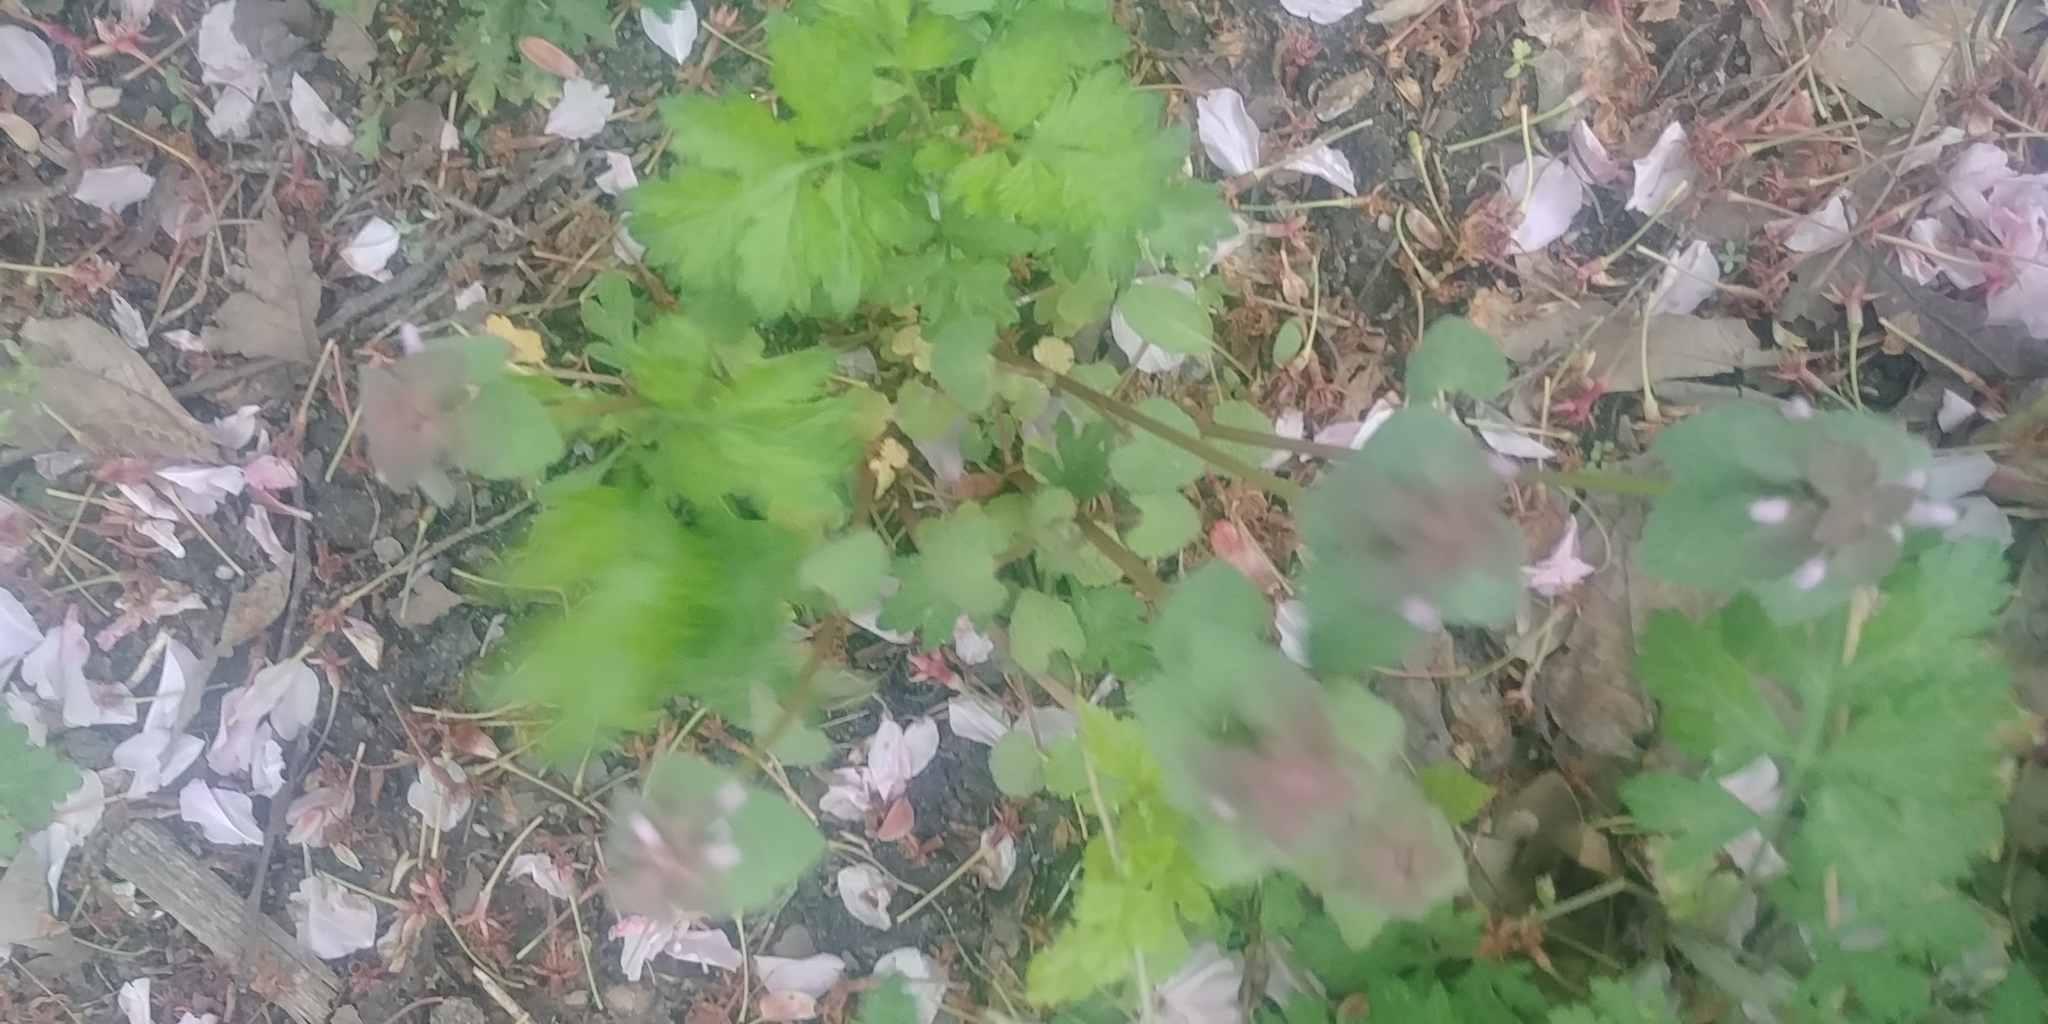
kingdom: Plantae
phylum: Tracheophyta
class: Magnoliopsida
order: Lamiales
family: Lamiaceae
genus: Lamium
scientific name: Lamium purpureum
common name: Red dead-nettle
